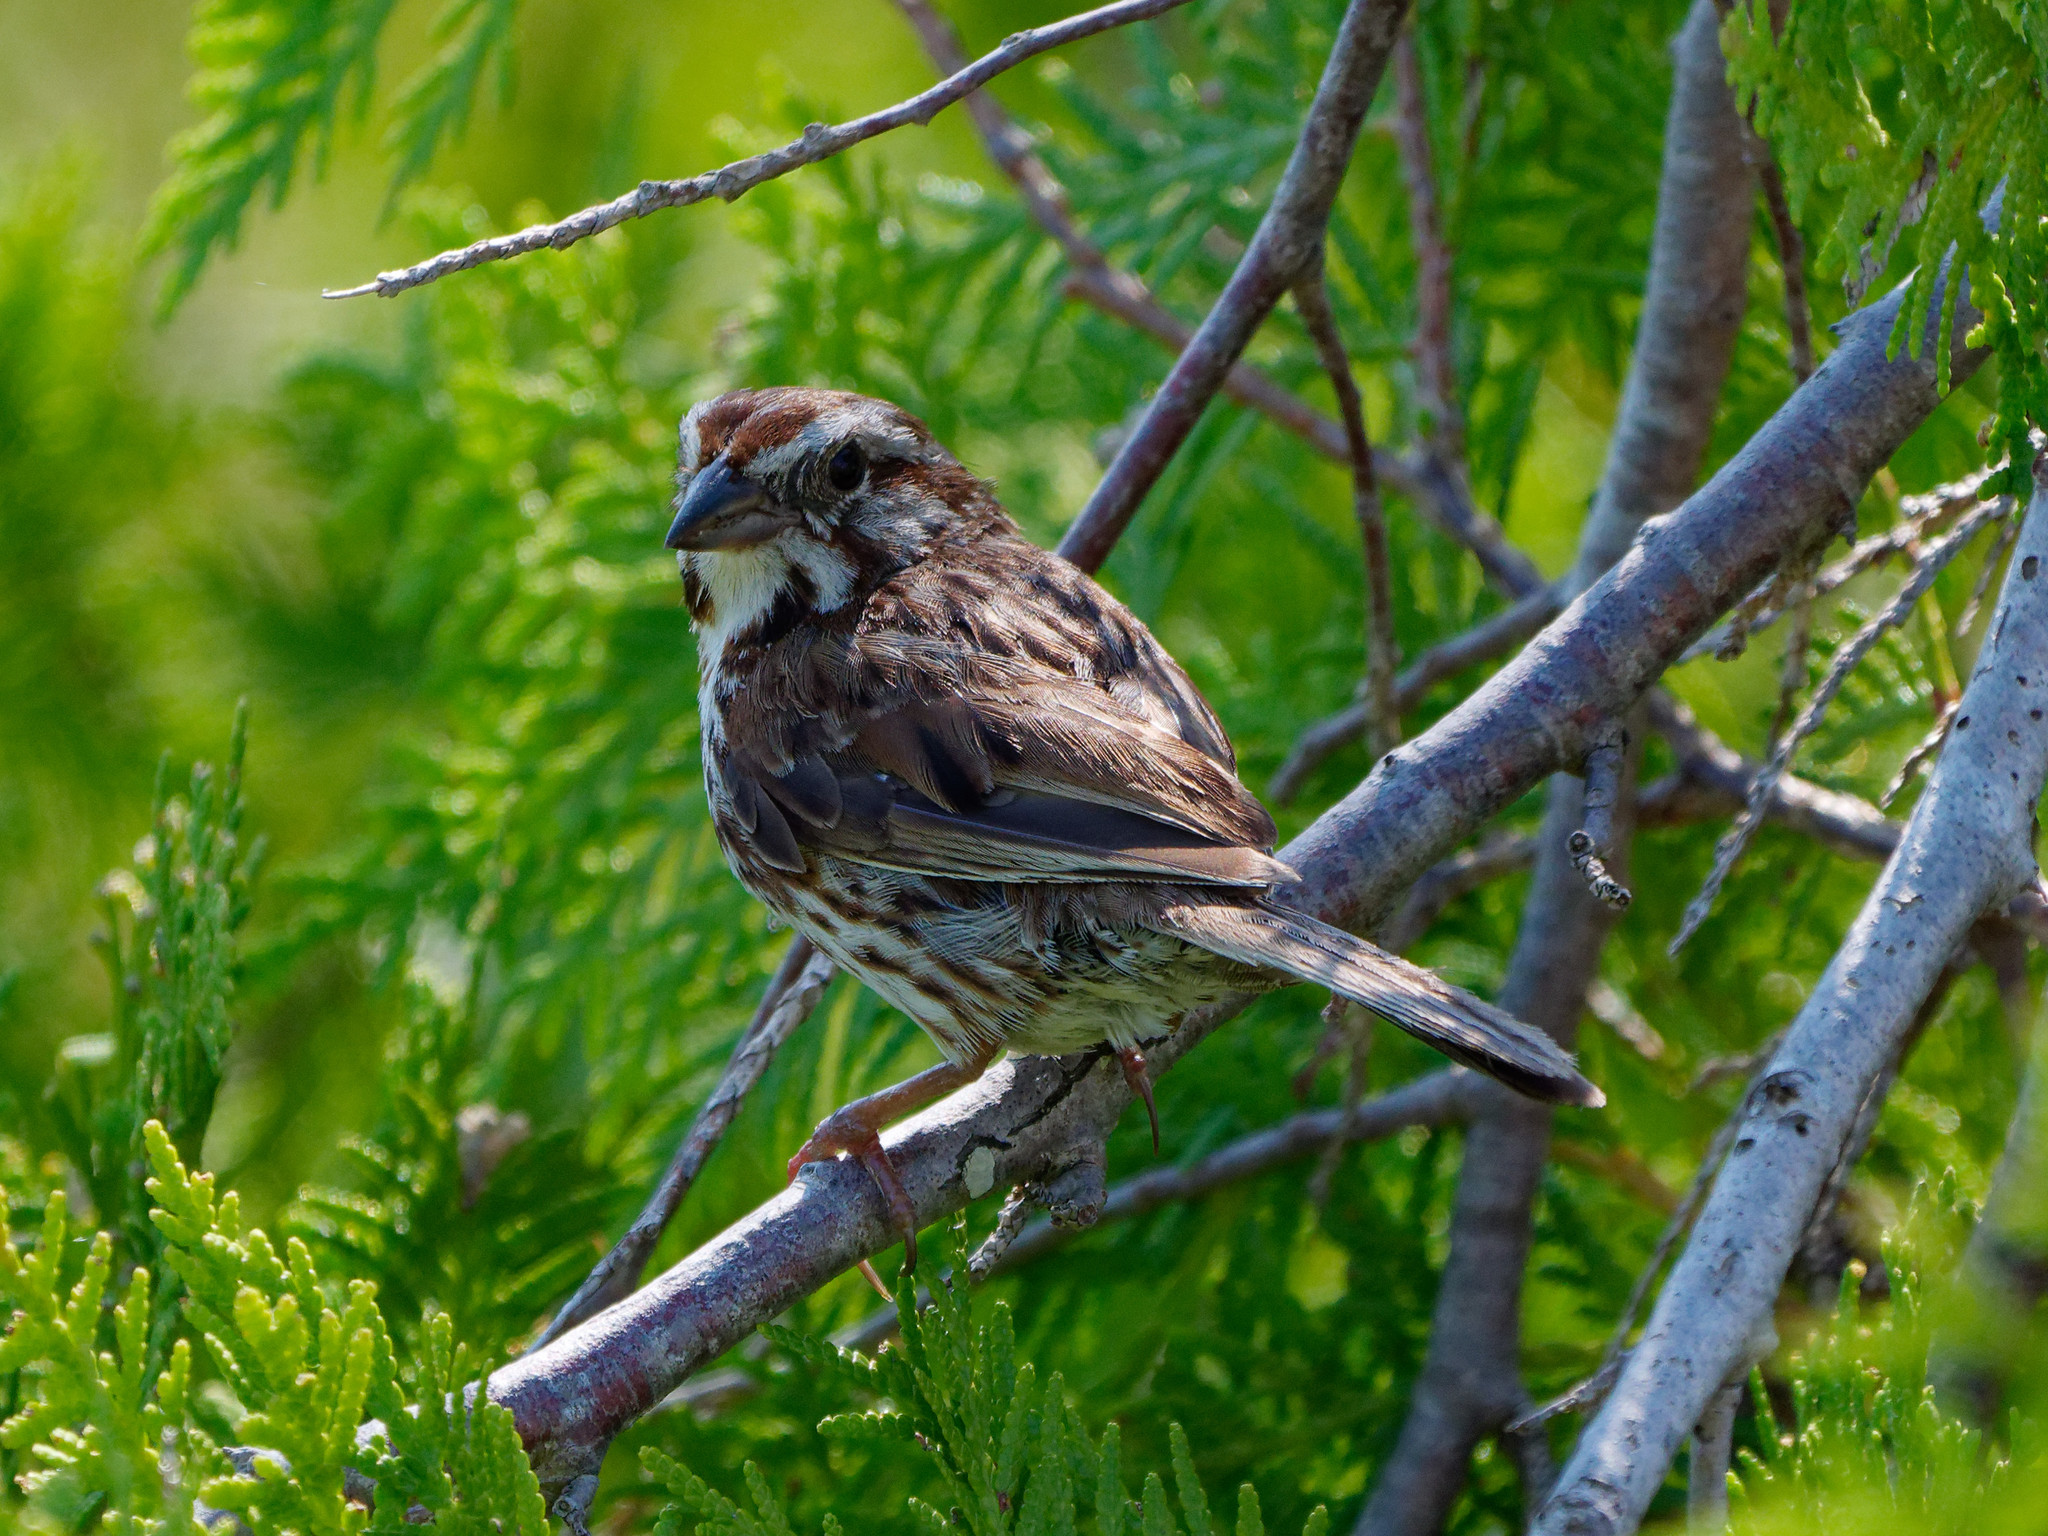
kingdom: Animalia
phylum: Chordata
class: Aves
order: Passeriformes
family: Passerellidae
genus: Melospiza
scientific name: Melospiza melodia
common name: Song sparrow
